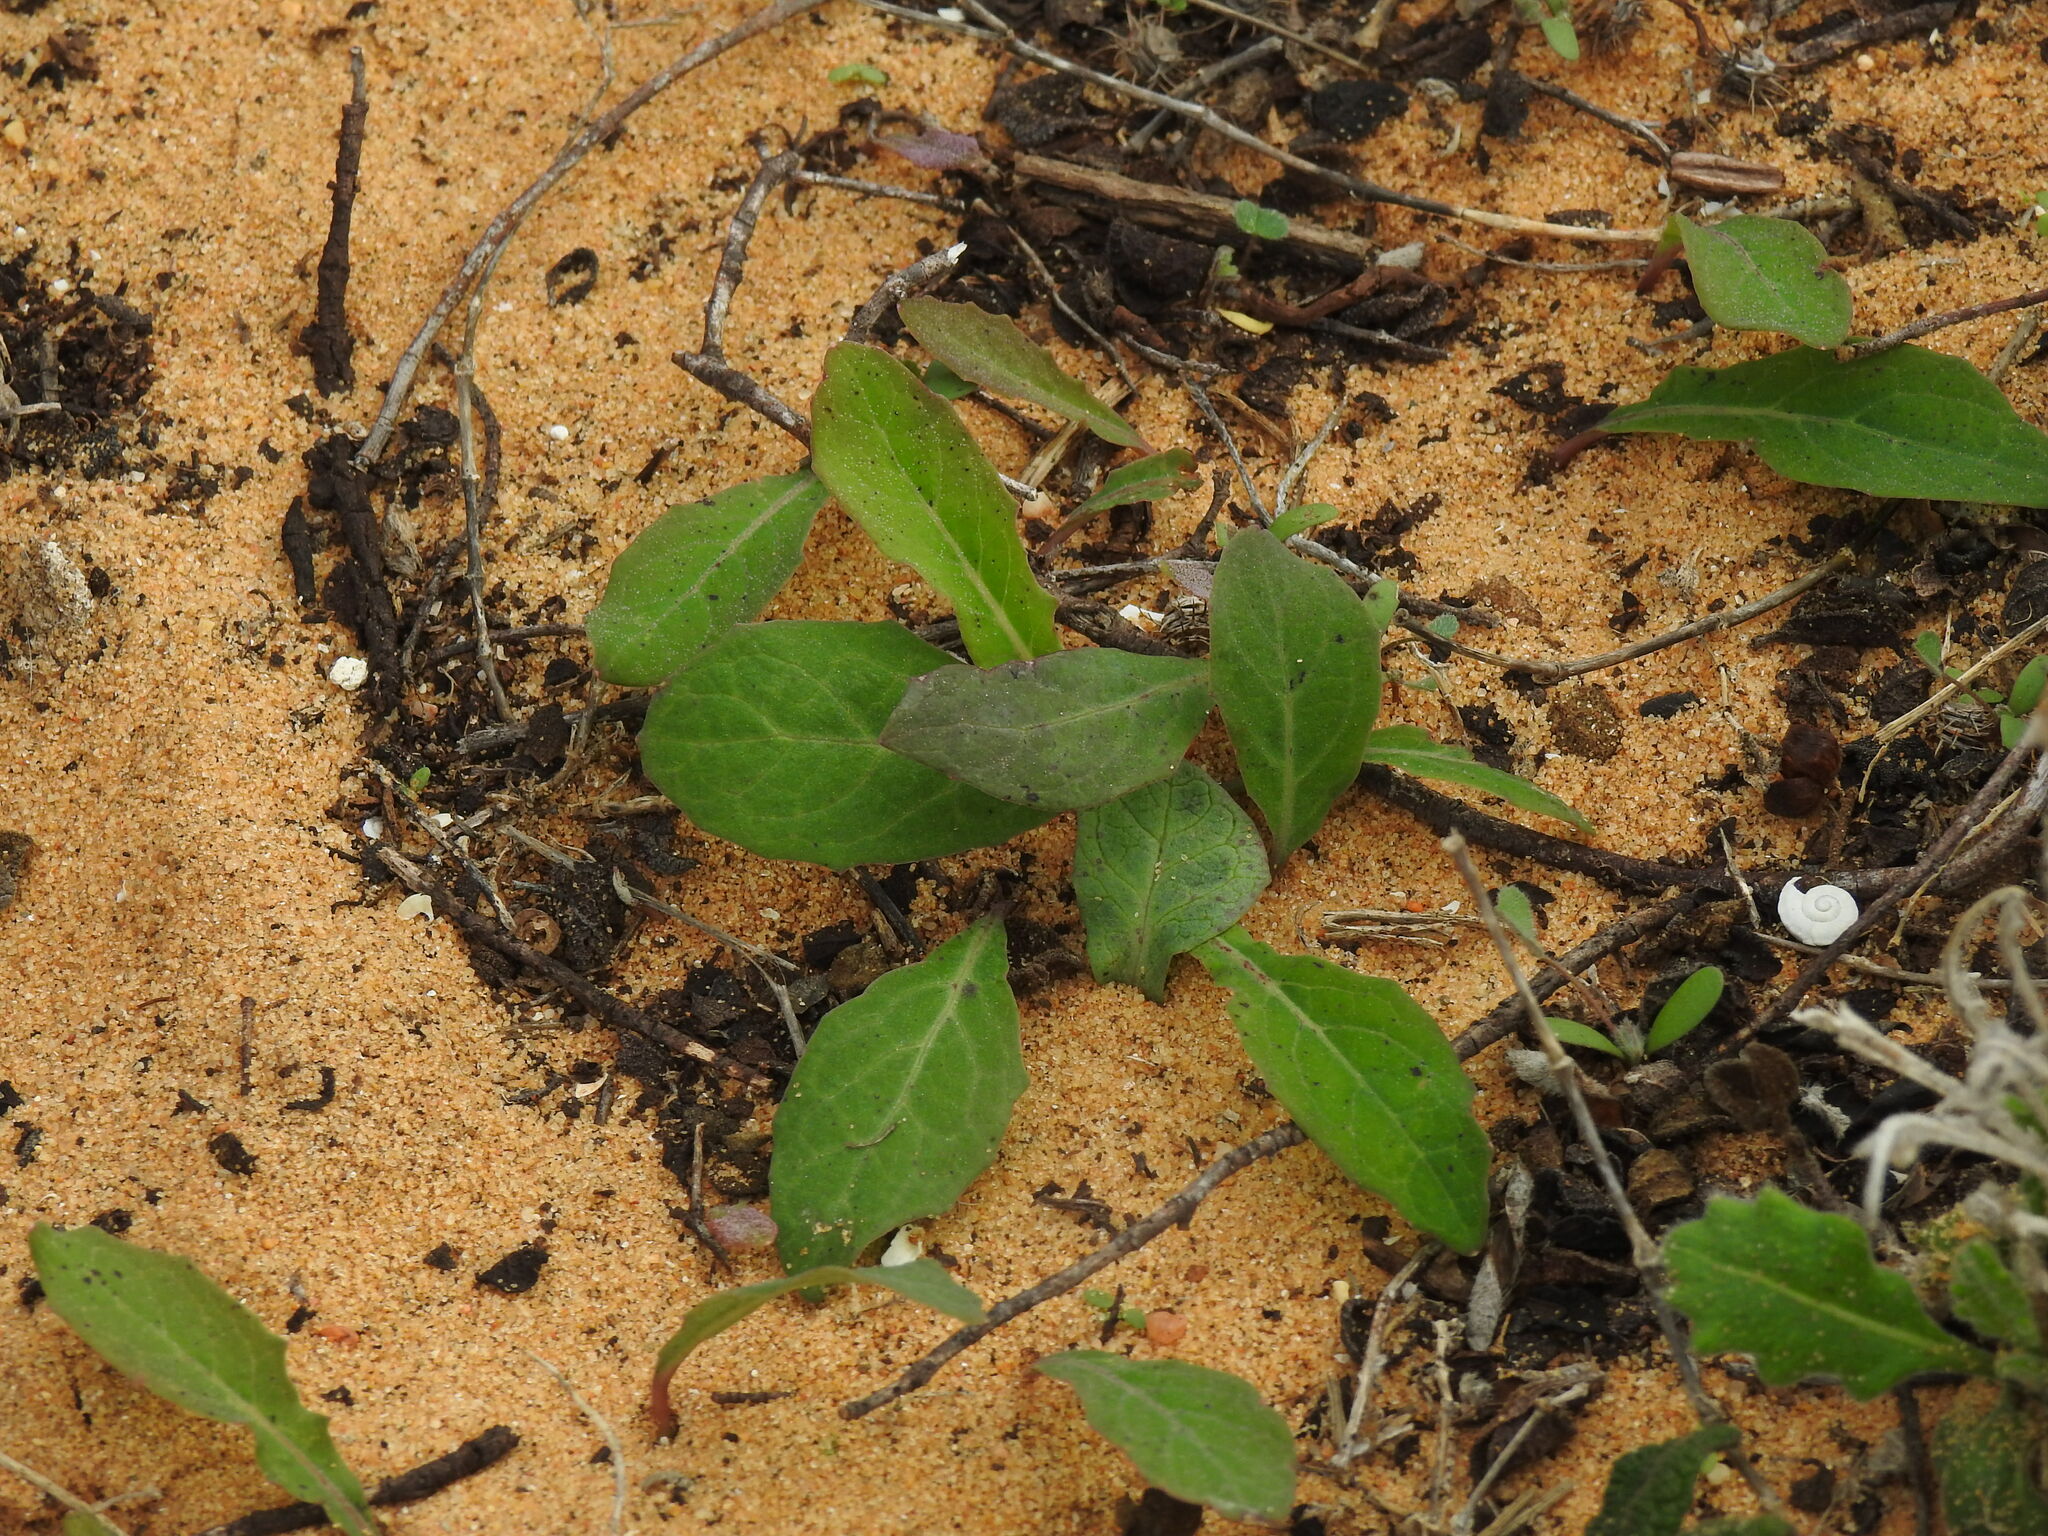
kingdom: Plantae
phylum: Tracheophyta
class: Magnoliopsida
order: Asterales
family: Asteraceae
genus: Aetheorhiza
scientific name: Aetheorhiza bulbosa
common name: Tuberous hawk's-beard
